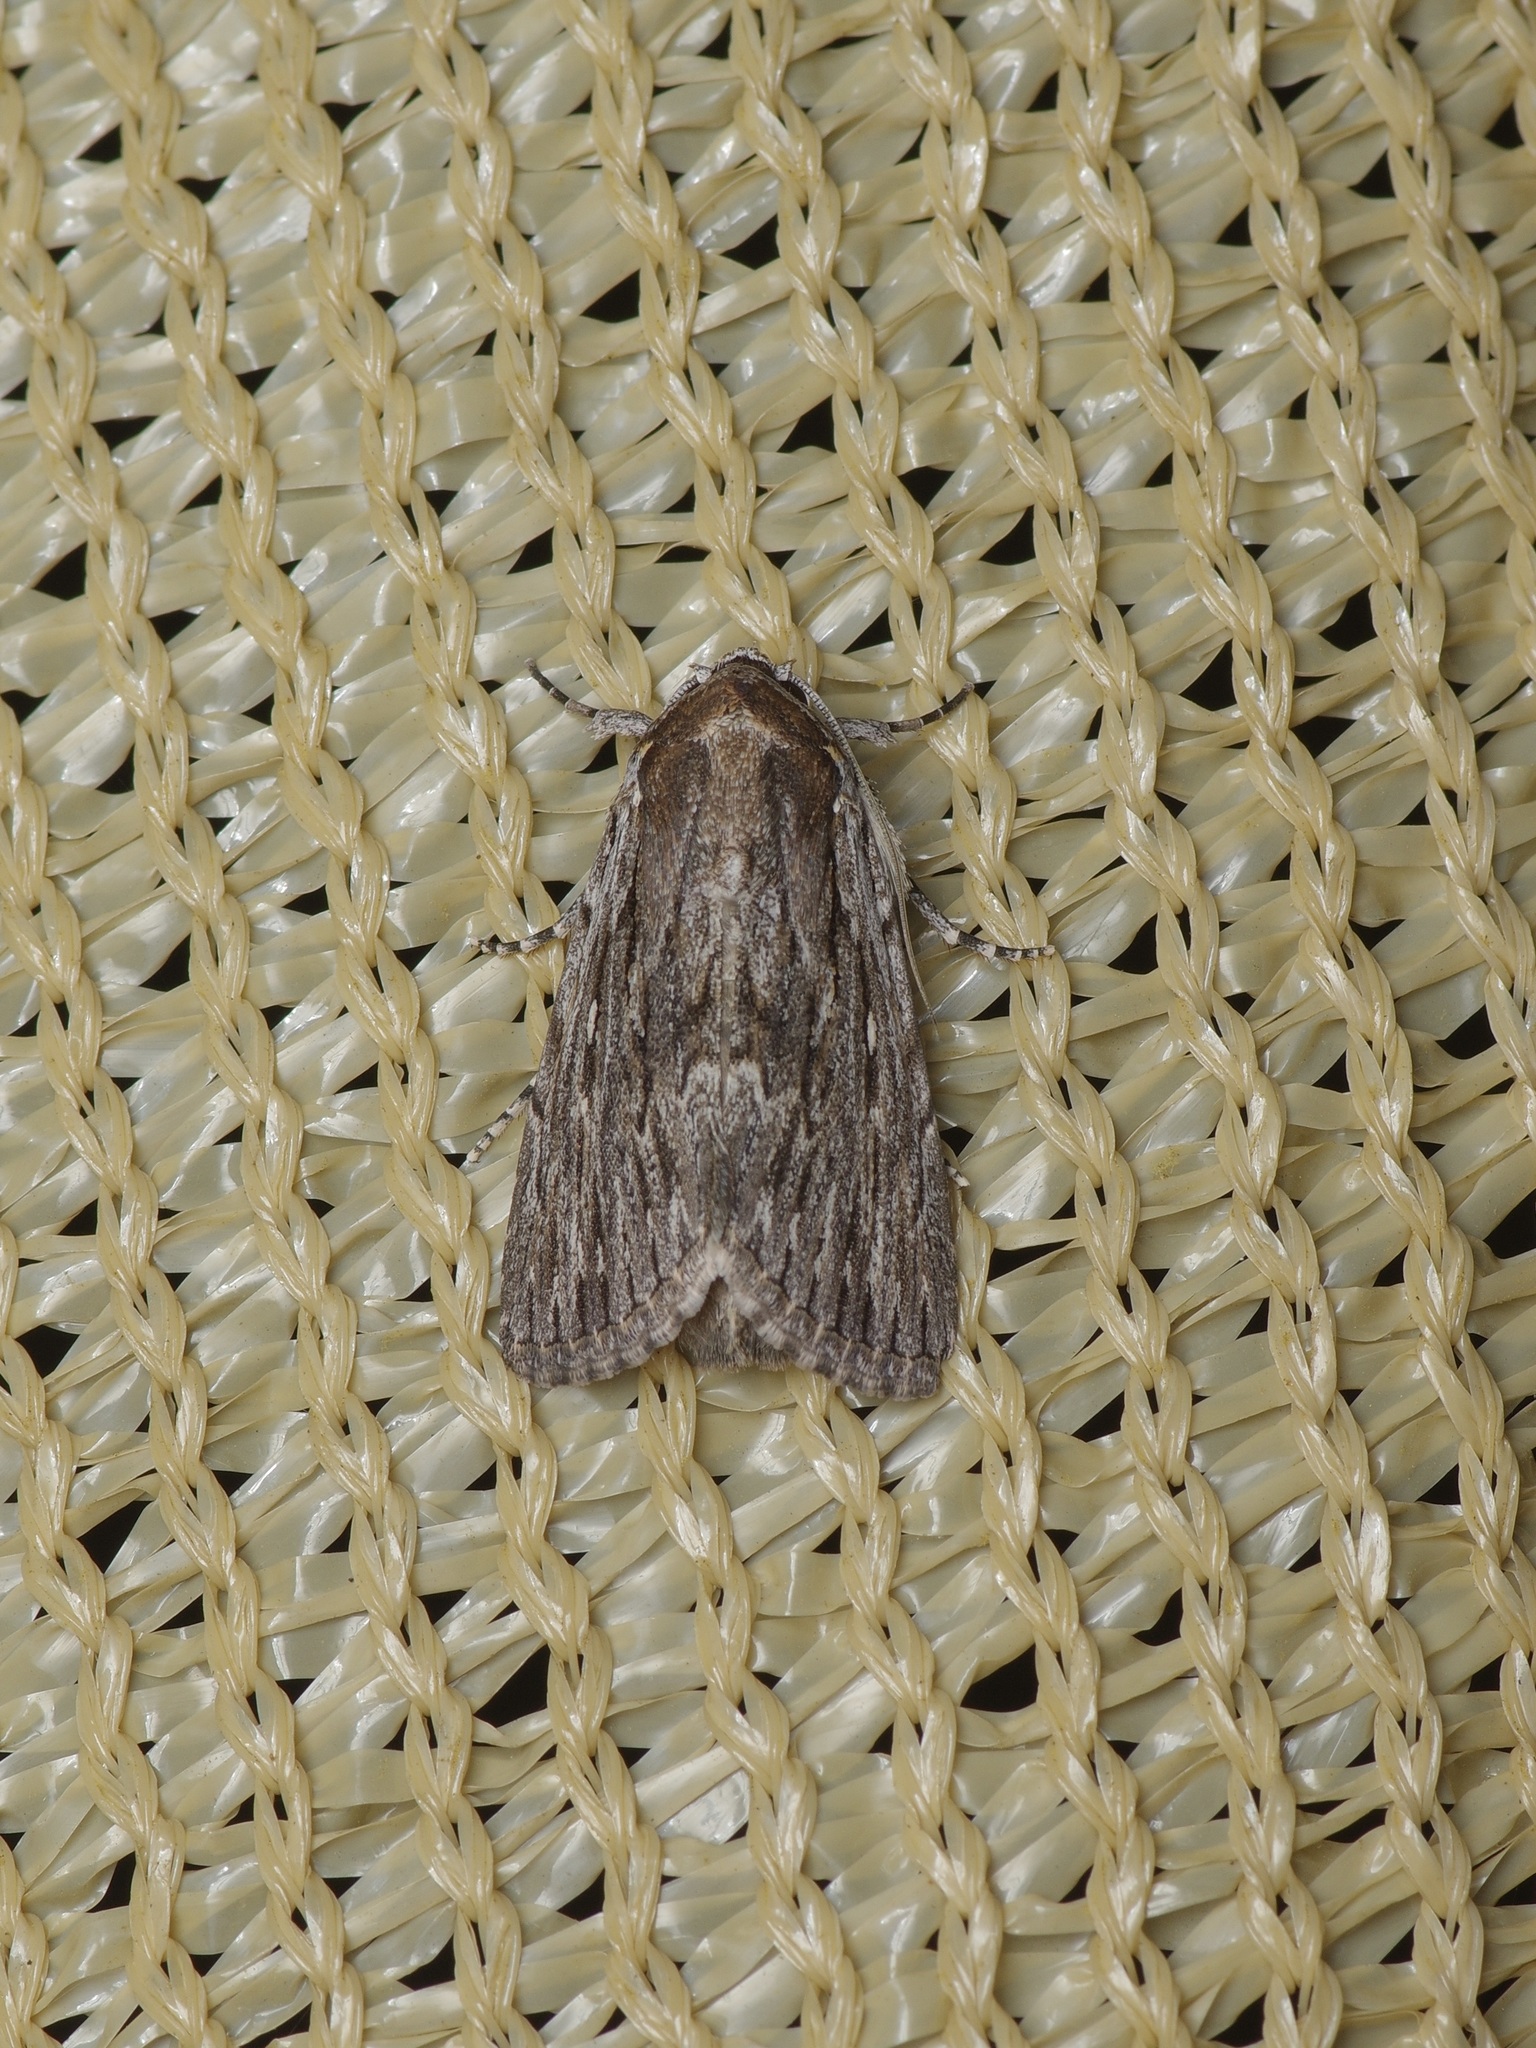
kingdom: Animalia
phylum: Arthropoda
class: Insecta
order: Lepidoptera
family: Noctuidae
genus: Neogalea
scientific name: Neogalea sunia
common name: Lantana stick caterpillar
